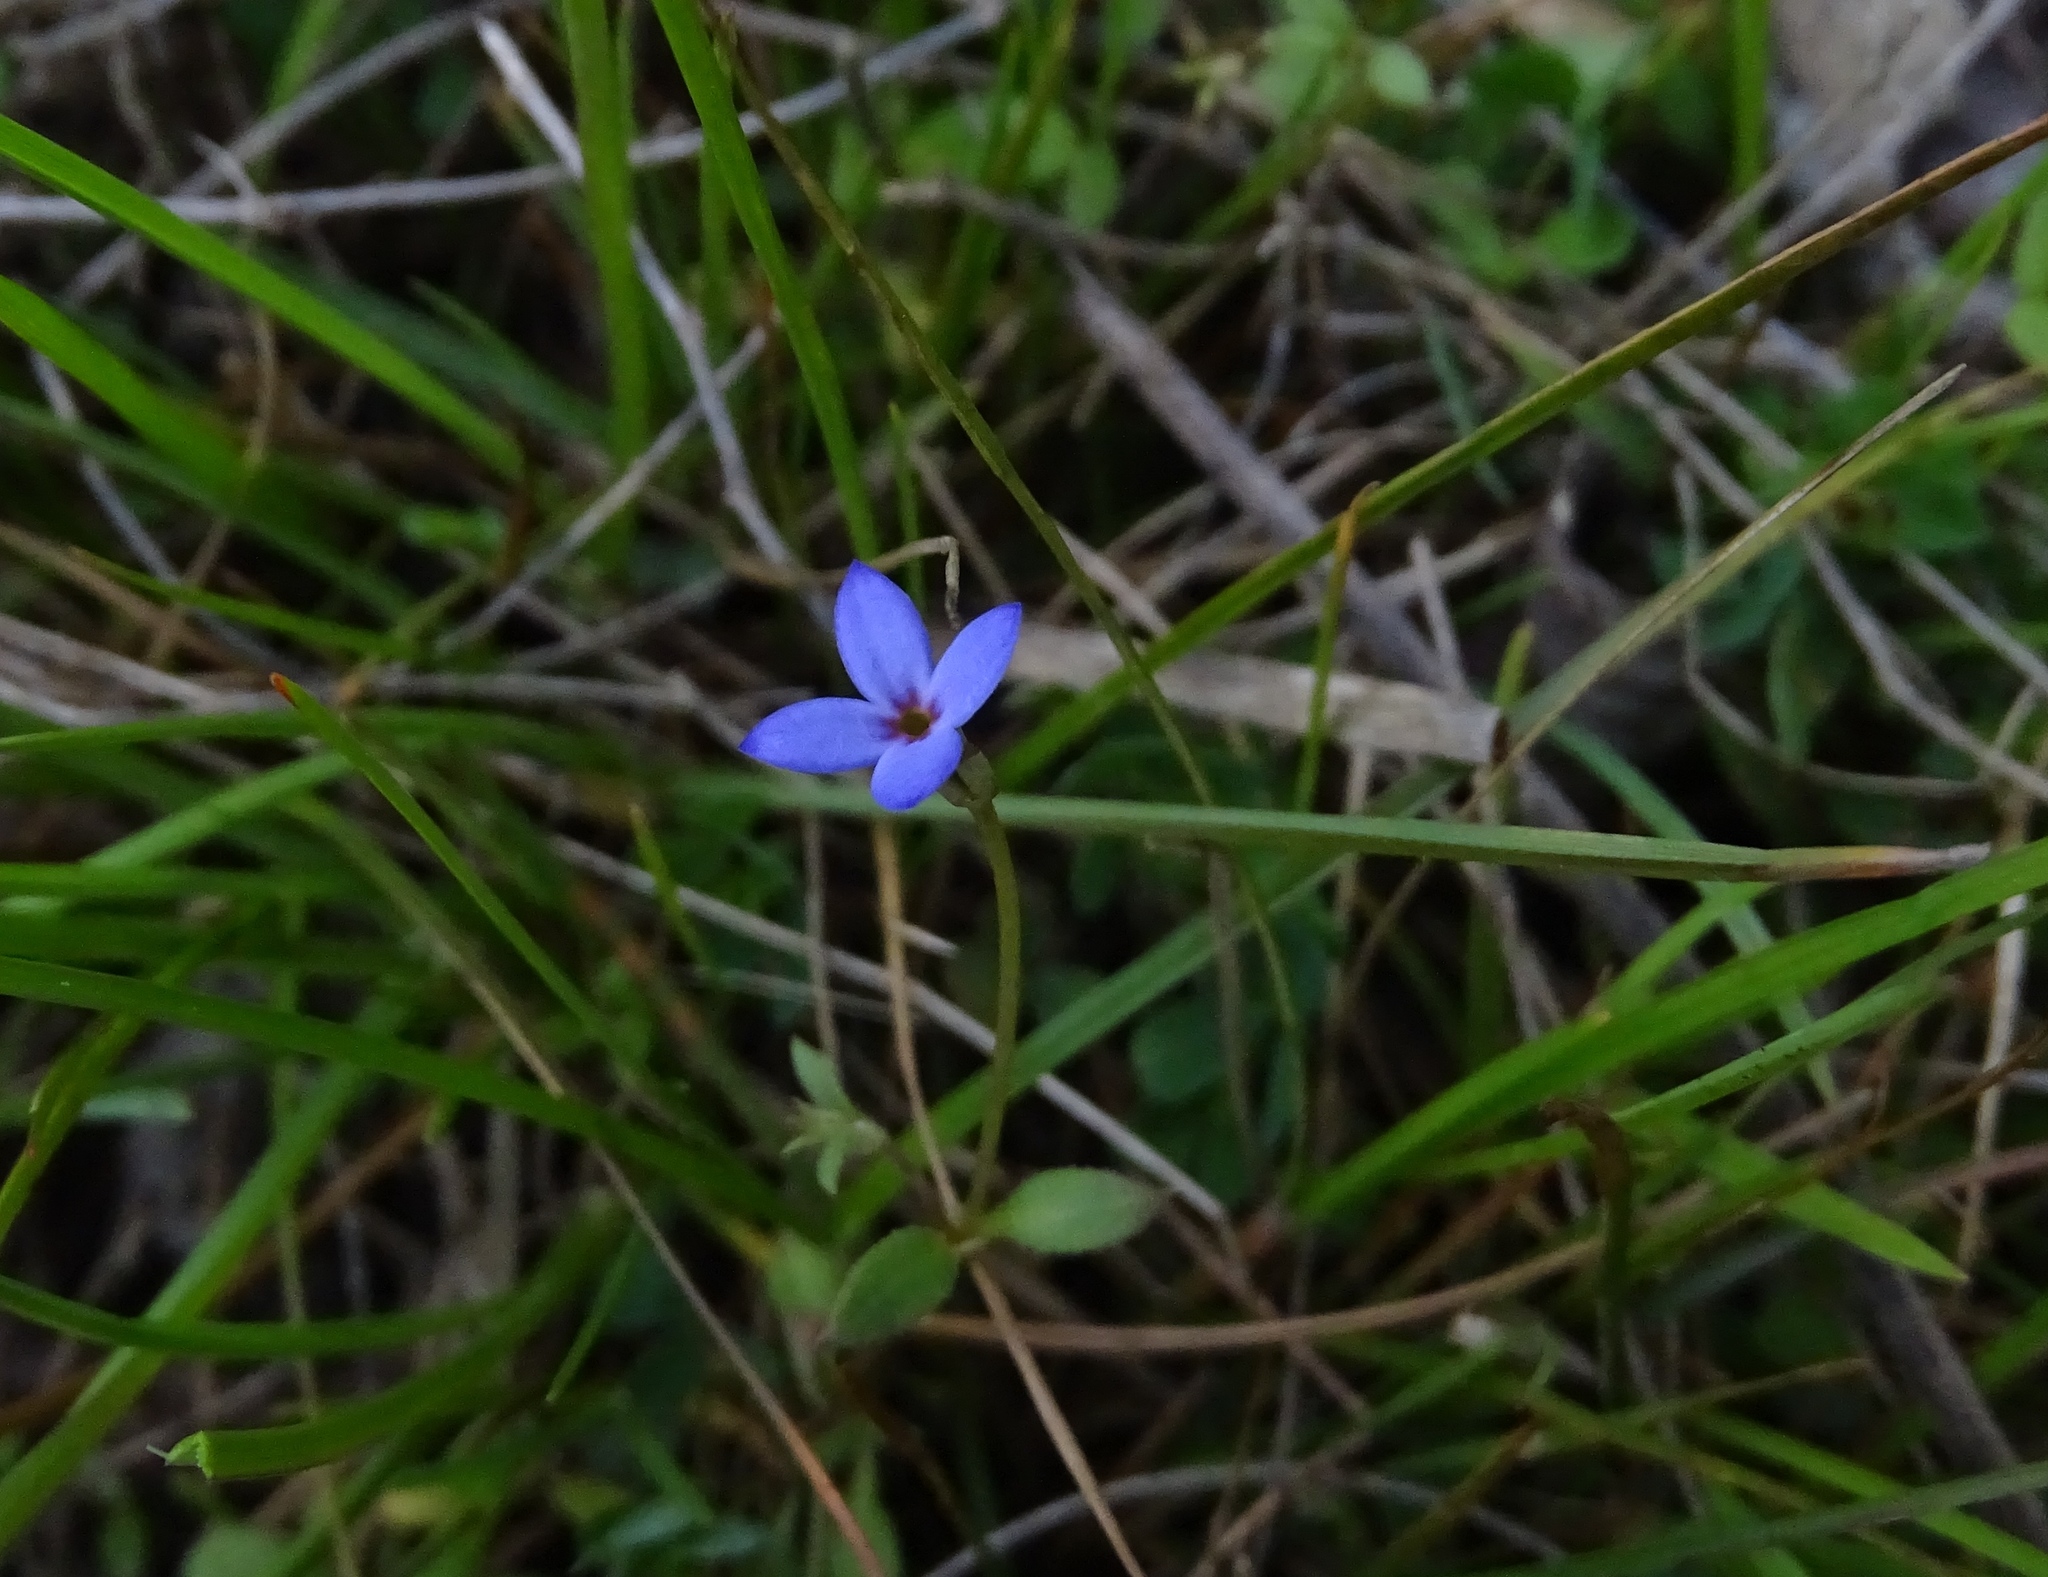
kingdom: Plantae
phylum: Tracheophyta
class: Magnoliopsida
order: Gentianales
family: Rubiaceae
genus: Houstonia
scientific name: Houstonia pusilla
